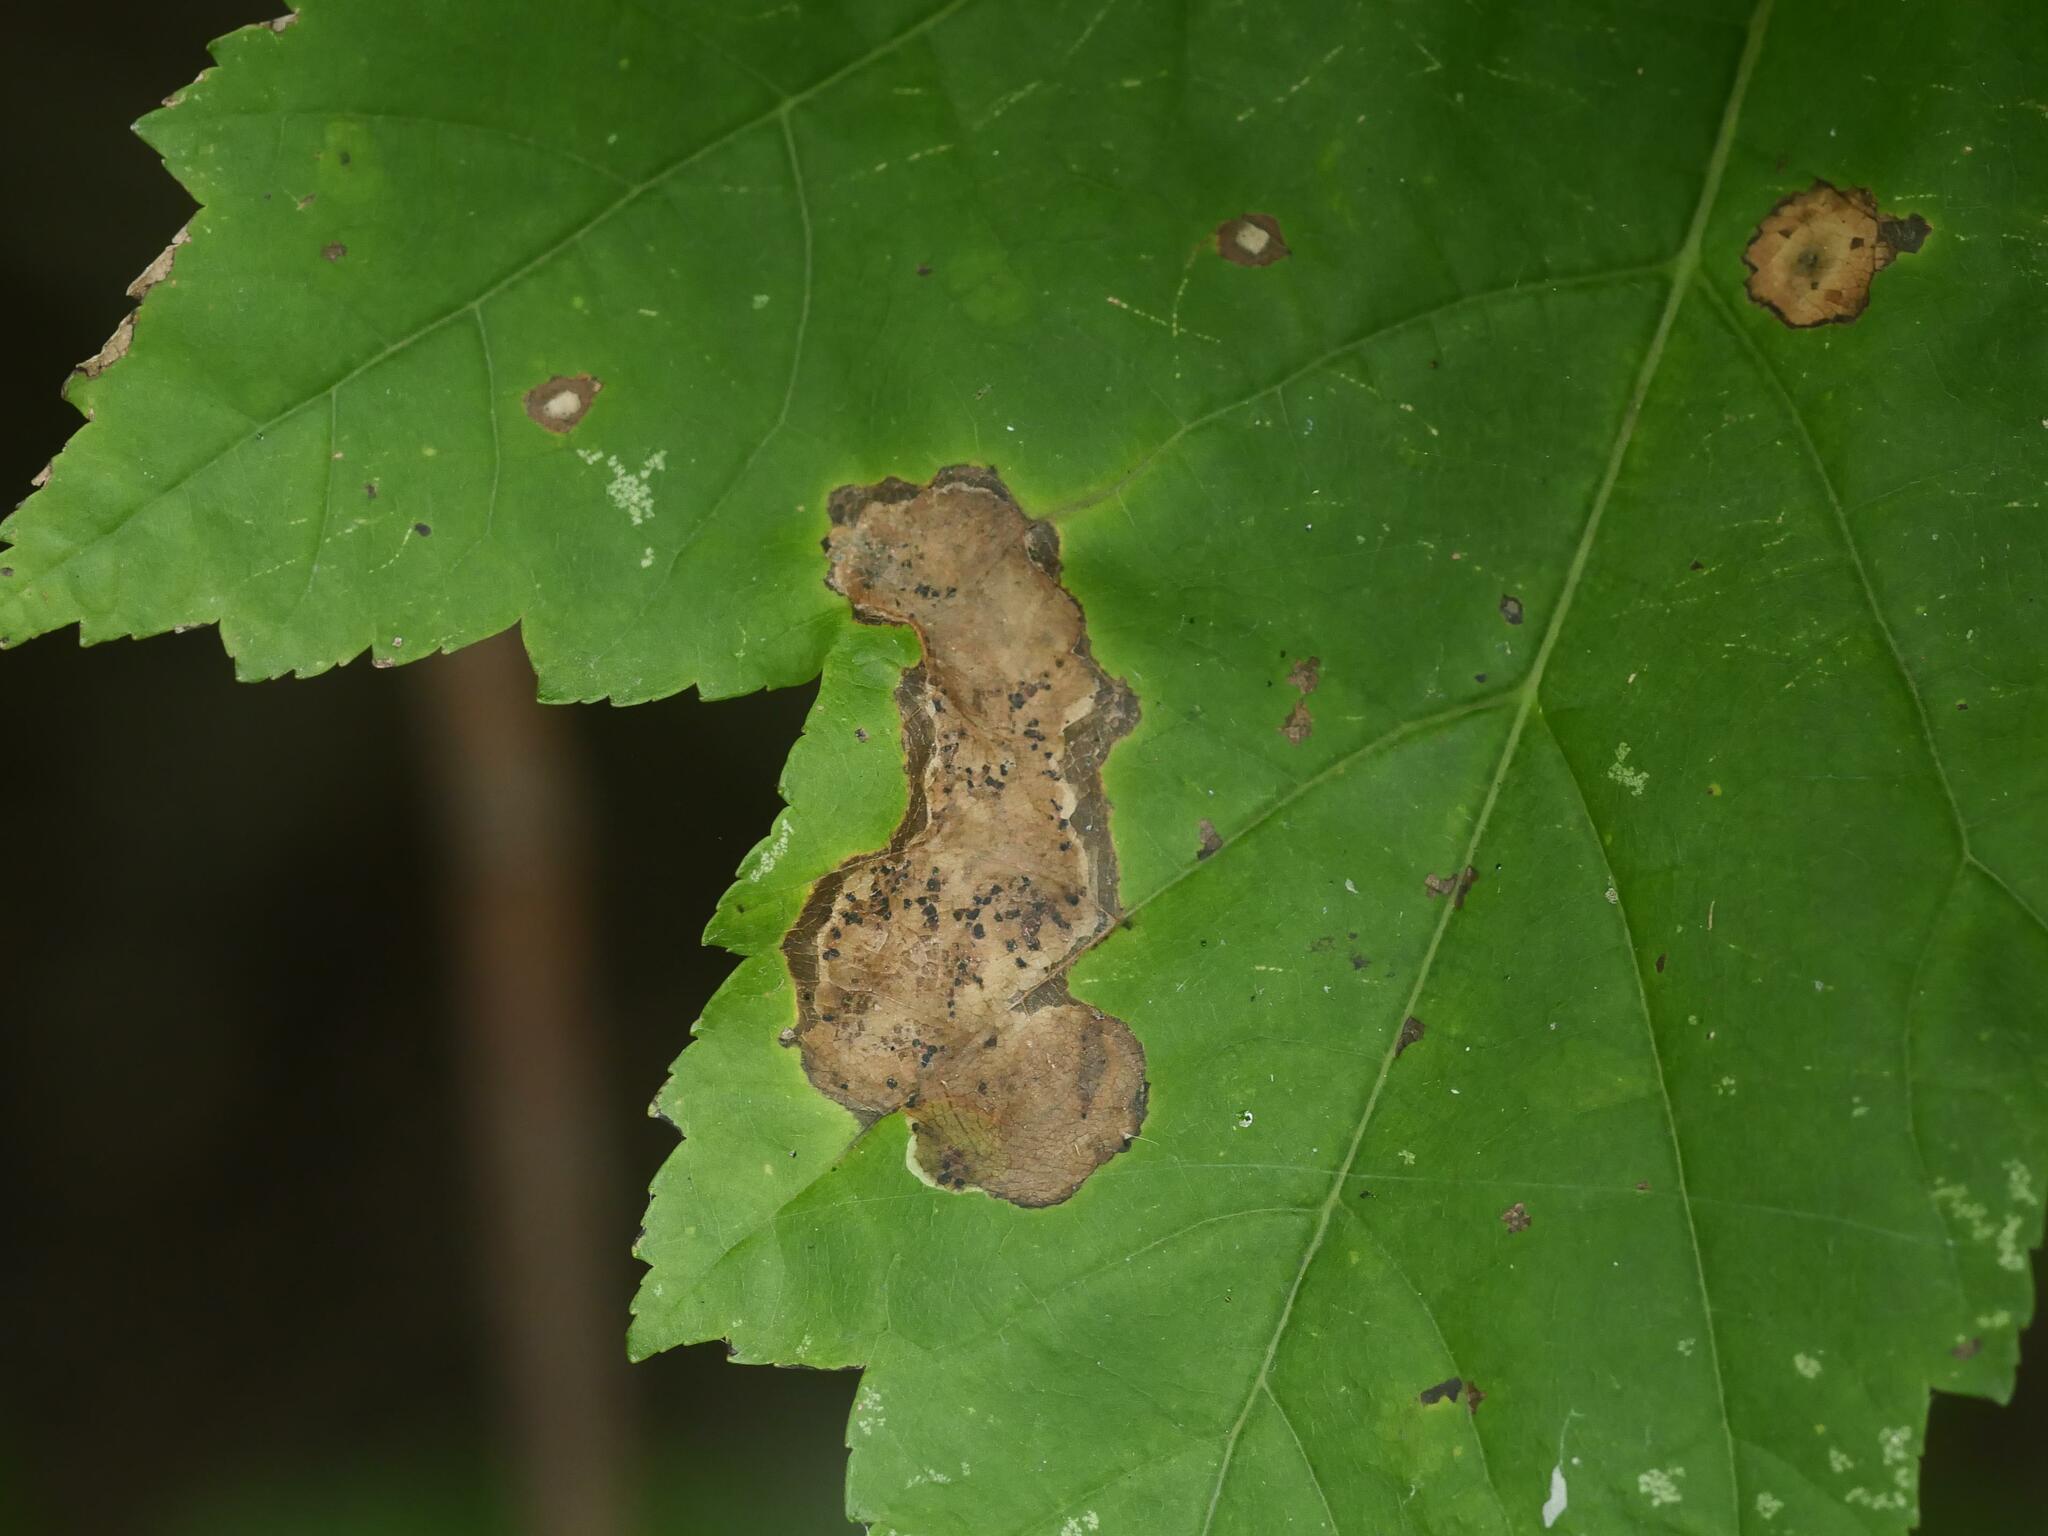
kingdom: Animalia
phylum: Arthropoda
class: Insecta
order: Lepidoptera
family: Gracillariidae
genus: Cameraria
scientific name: Cameraria aceriella
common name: Maple leafblotch miner
